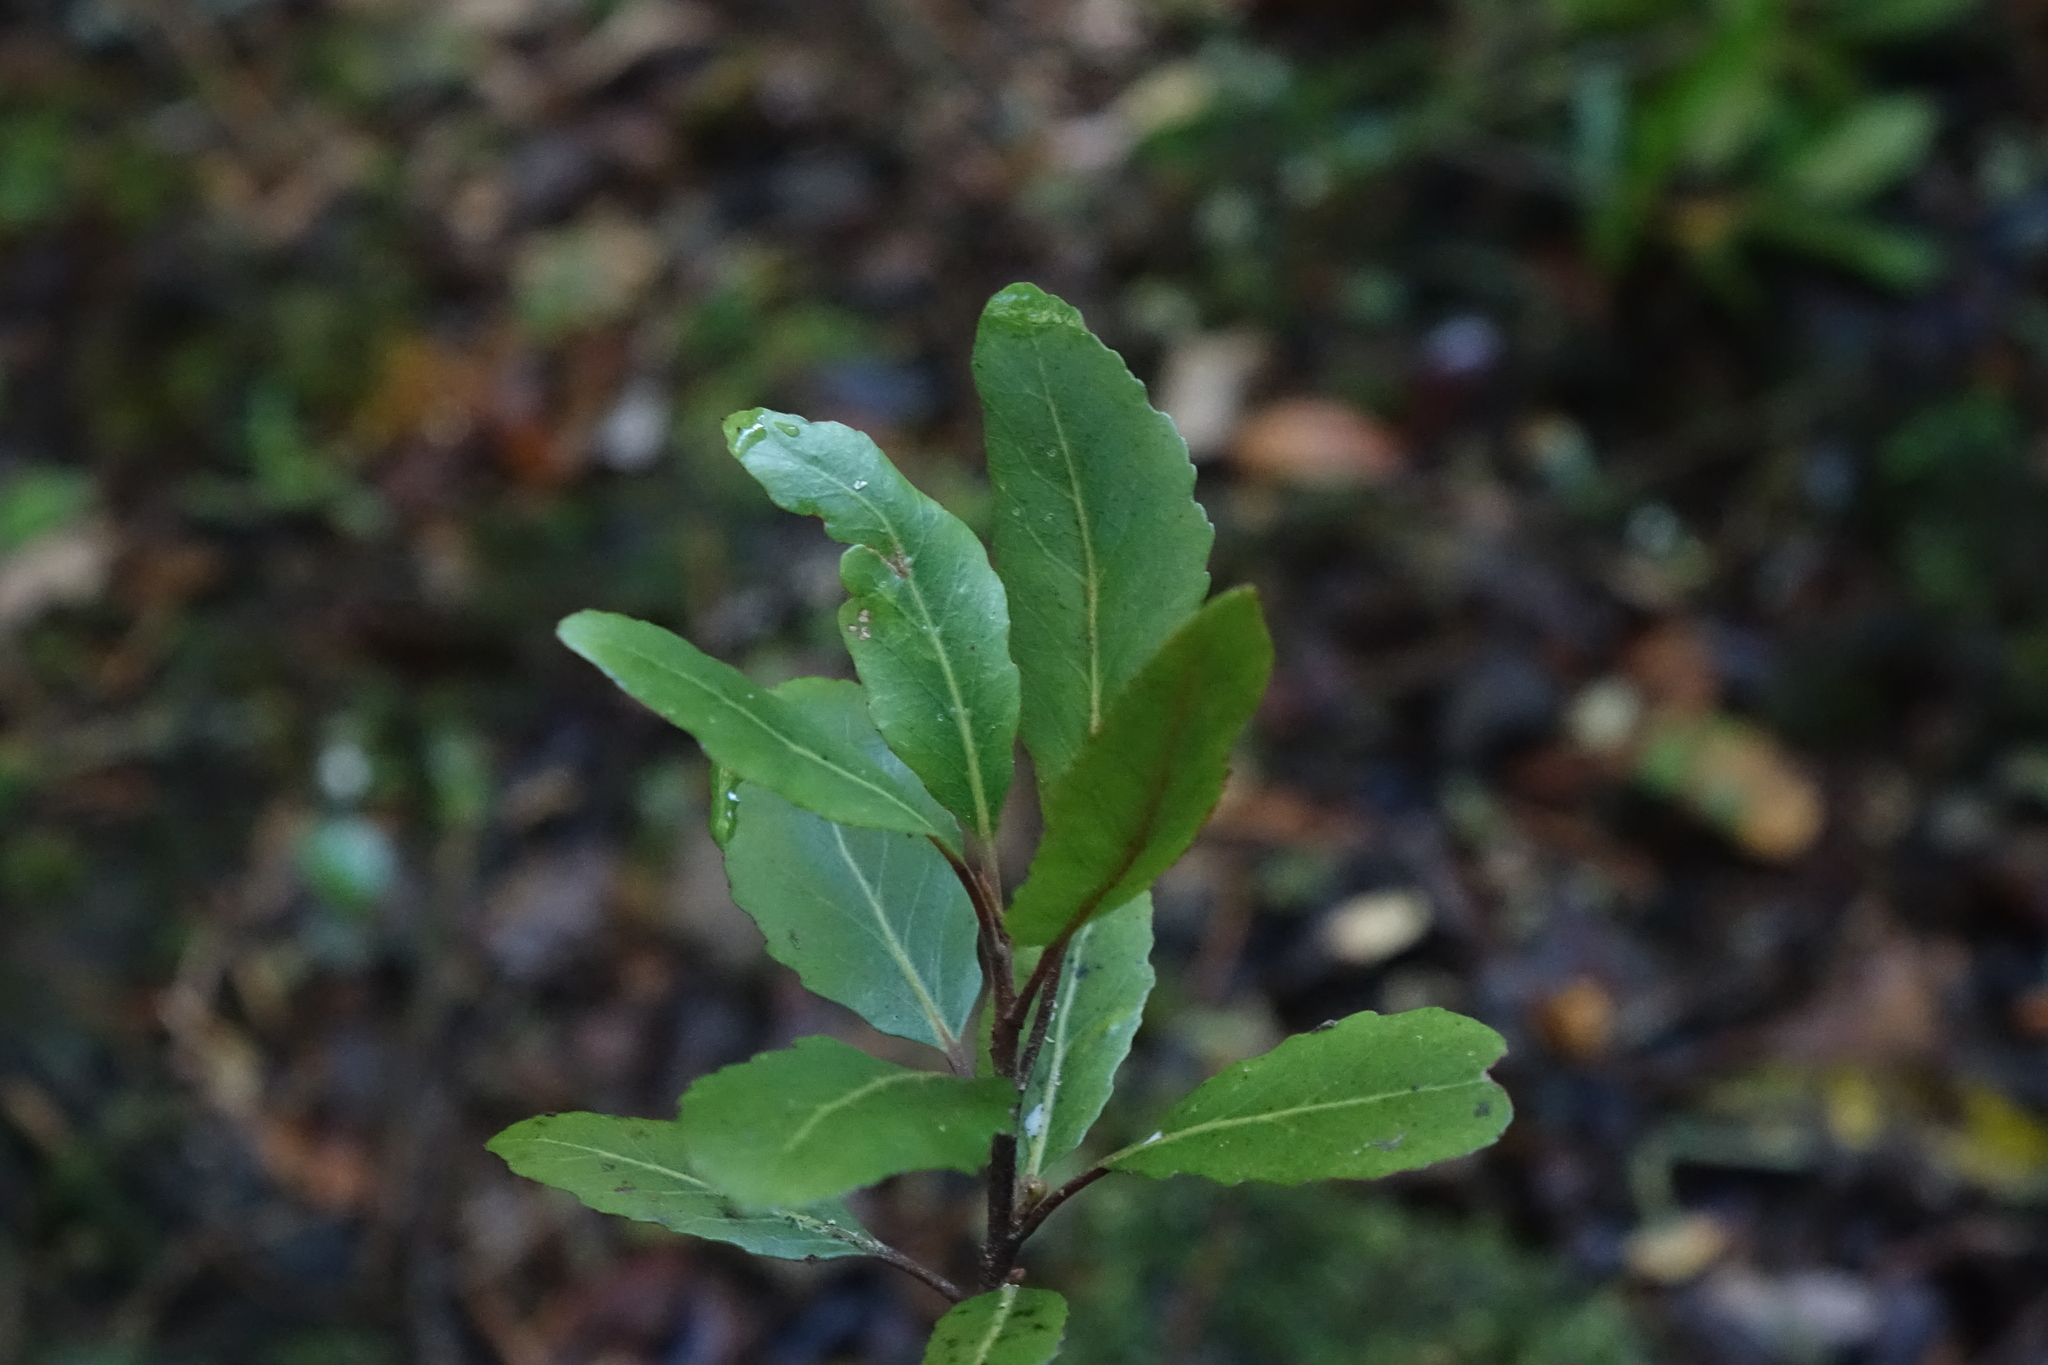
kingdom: Plantae
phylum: Tracheophyta
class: Magnoliopsida
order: Oxalidales
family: Elaeocarpaceae
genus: Elaeocarpus
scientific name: Elaeocarpus hookerianus
